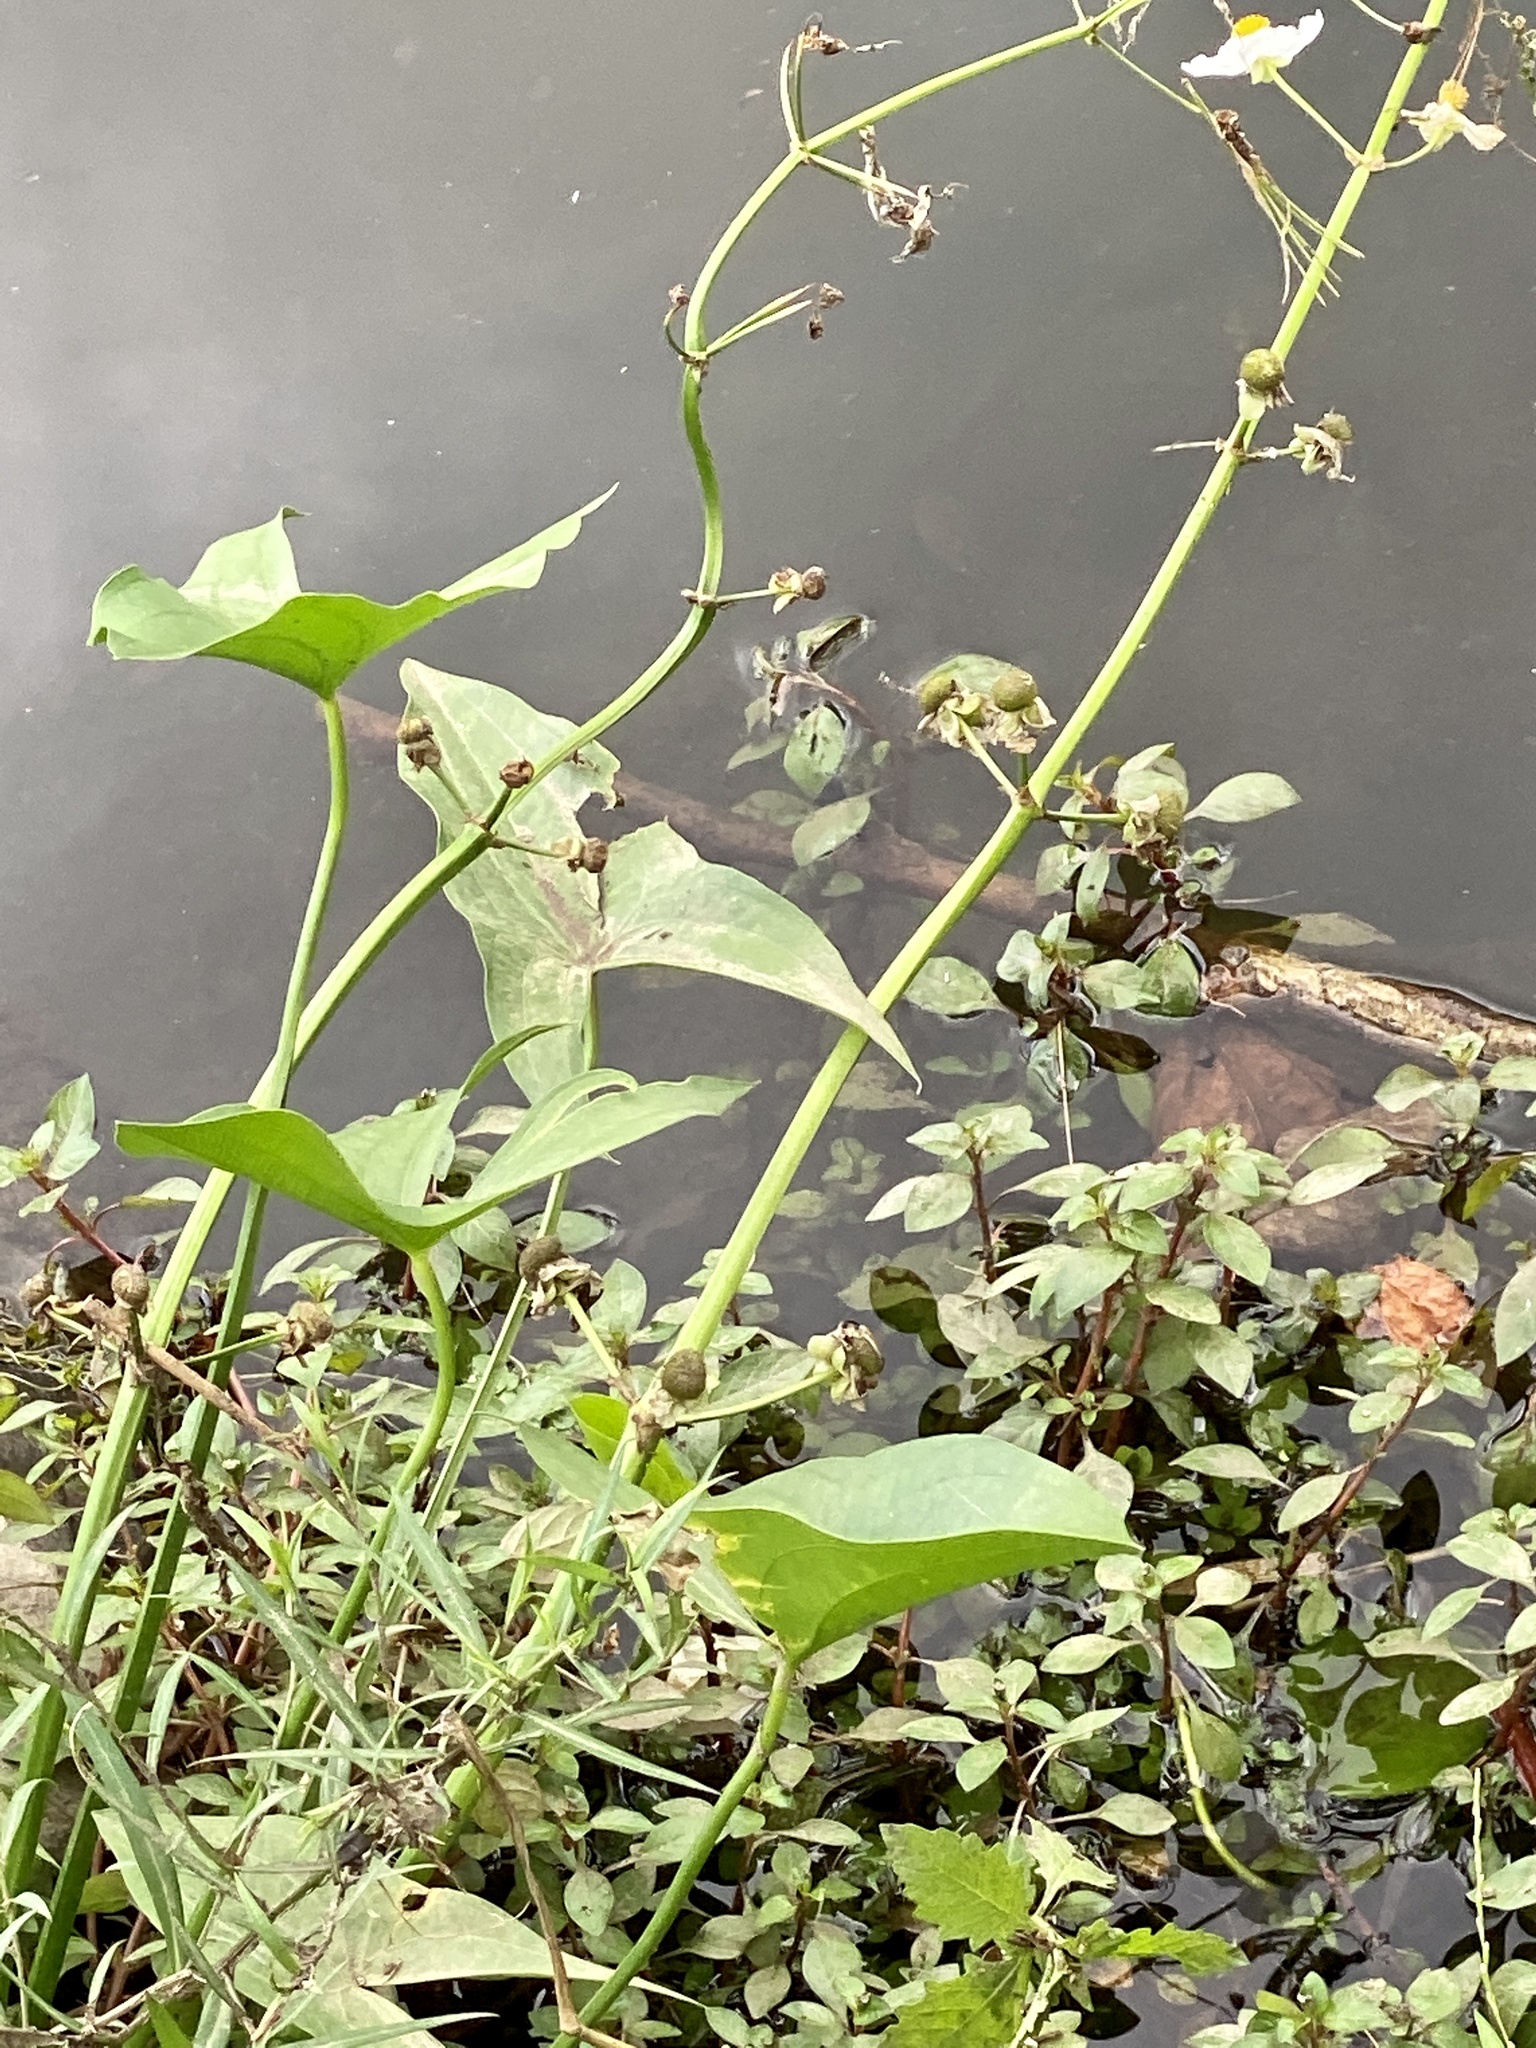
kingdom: Plantae
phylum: Tracheophyta
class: Liliopsida
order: Alismatales
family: Alismataceae
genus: Sagittaria
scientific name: Sagittaria latifolia
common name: Duck-potato
